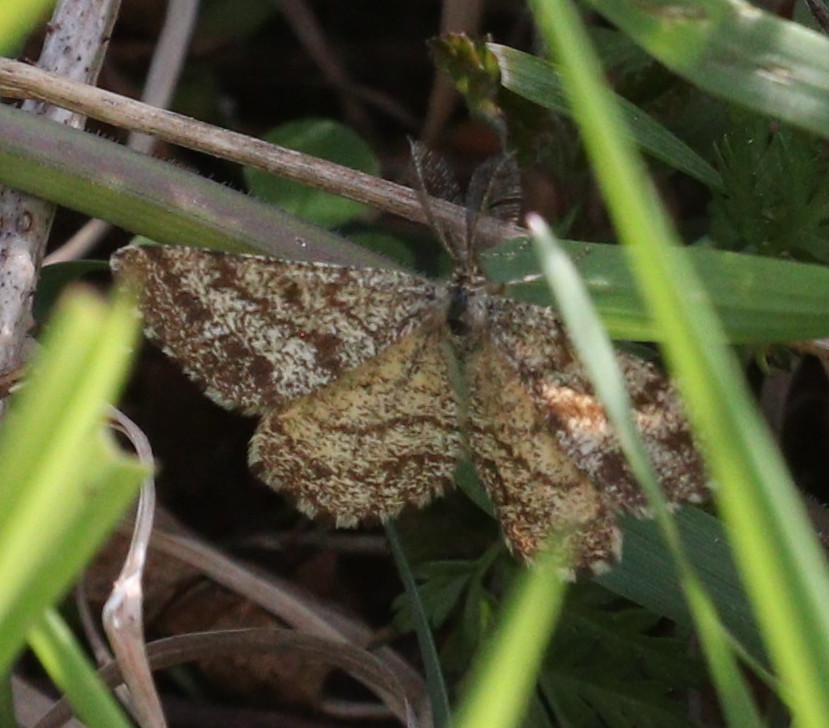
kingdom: Animalia
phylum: Arthropoda
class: Insecta
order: Lepidoptera
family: Geometridae
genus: Ematurga
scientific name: Ematurga atomaria
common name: Common heath
